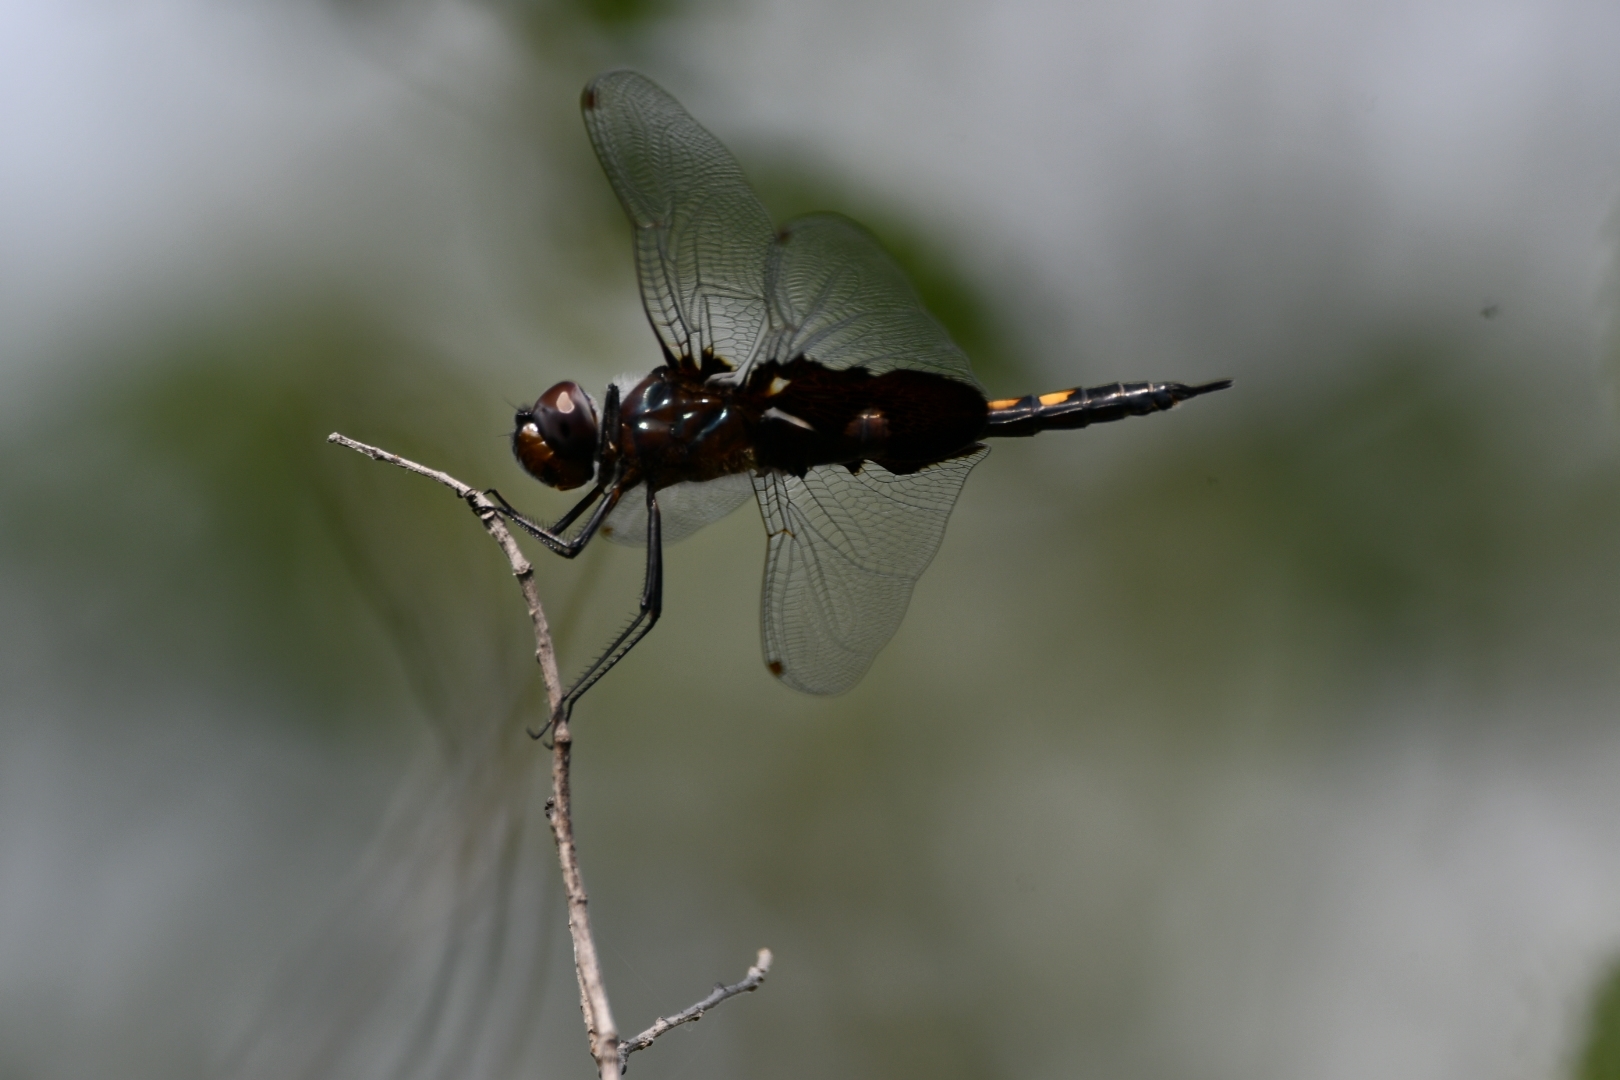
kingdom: Animalia
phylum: Arthropoda
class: Insecta
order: Odonata
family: Libellulidae
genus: Tramea
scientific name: Tramea lacerata
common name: Black saddlebags
